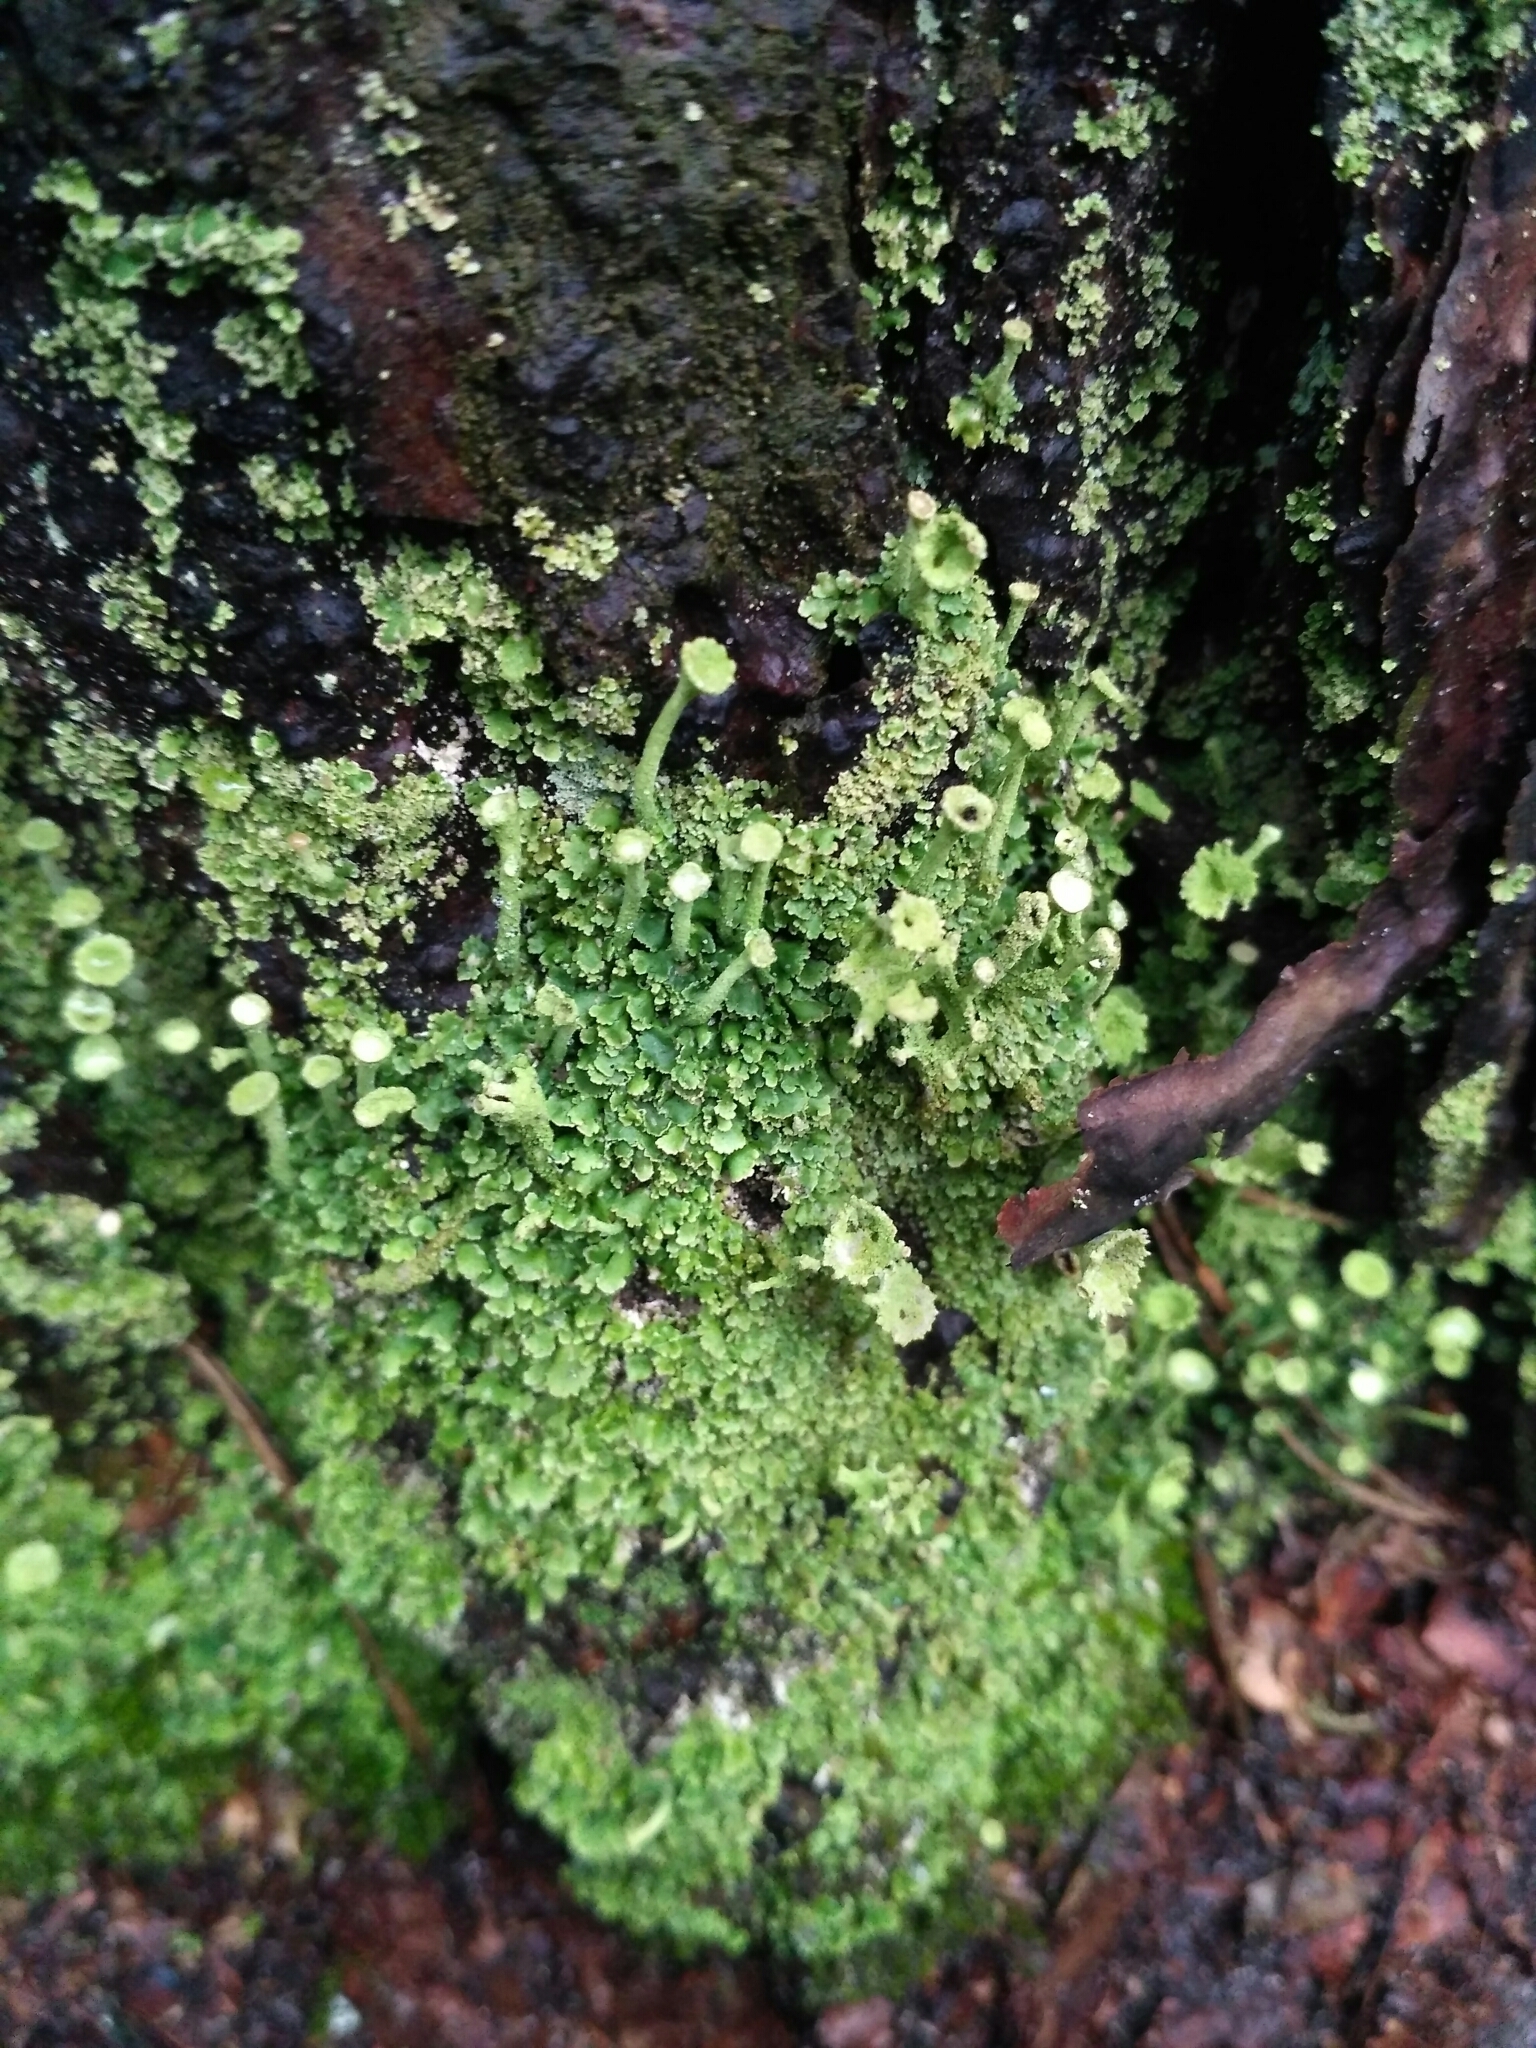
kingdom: Fungi
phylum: Ascomycota
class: Lecanoromycetes
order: Lecanorales
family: Cladoniaceae
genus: Cladonia
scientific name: Cladonia fimbriata
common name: Powdered trumpet lichen
